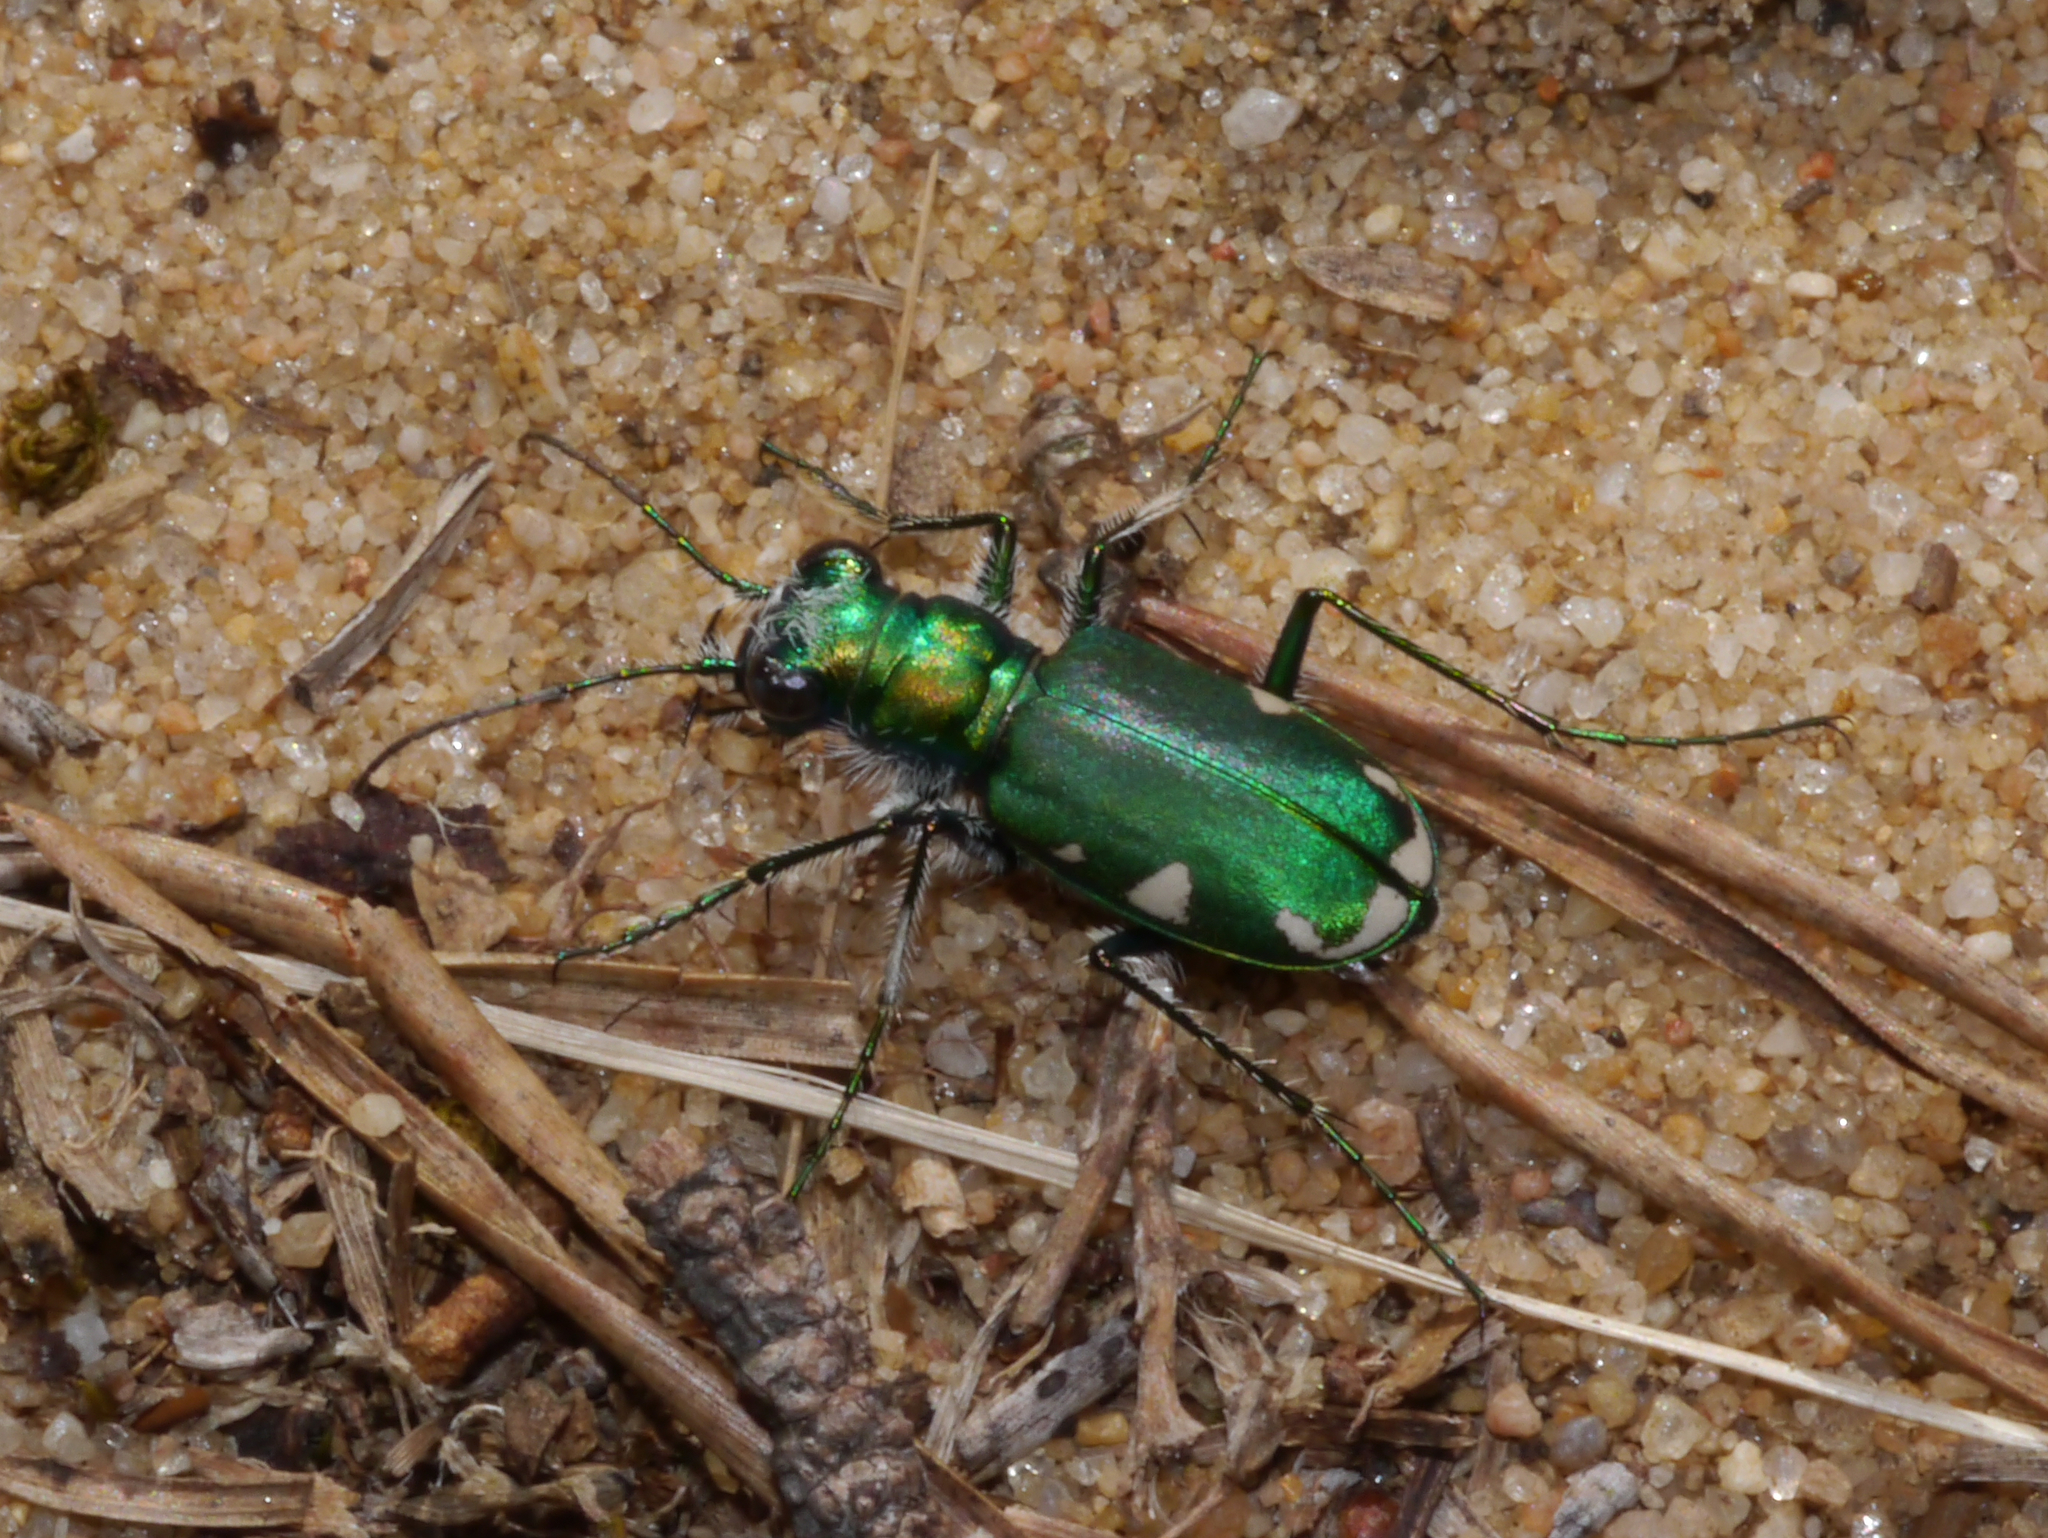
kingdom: Animalia
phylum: Arthropoda
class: Insecta
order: Coleoptera
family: Carabidae
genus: Cicindela
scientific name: Cicindela scutellaris
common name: Festive tiger beetle
